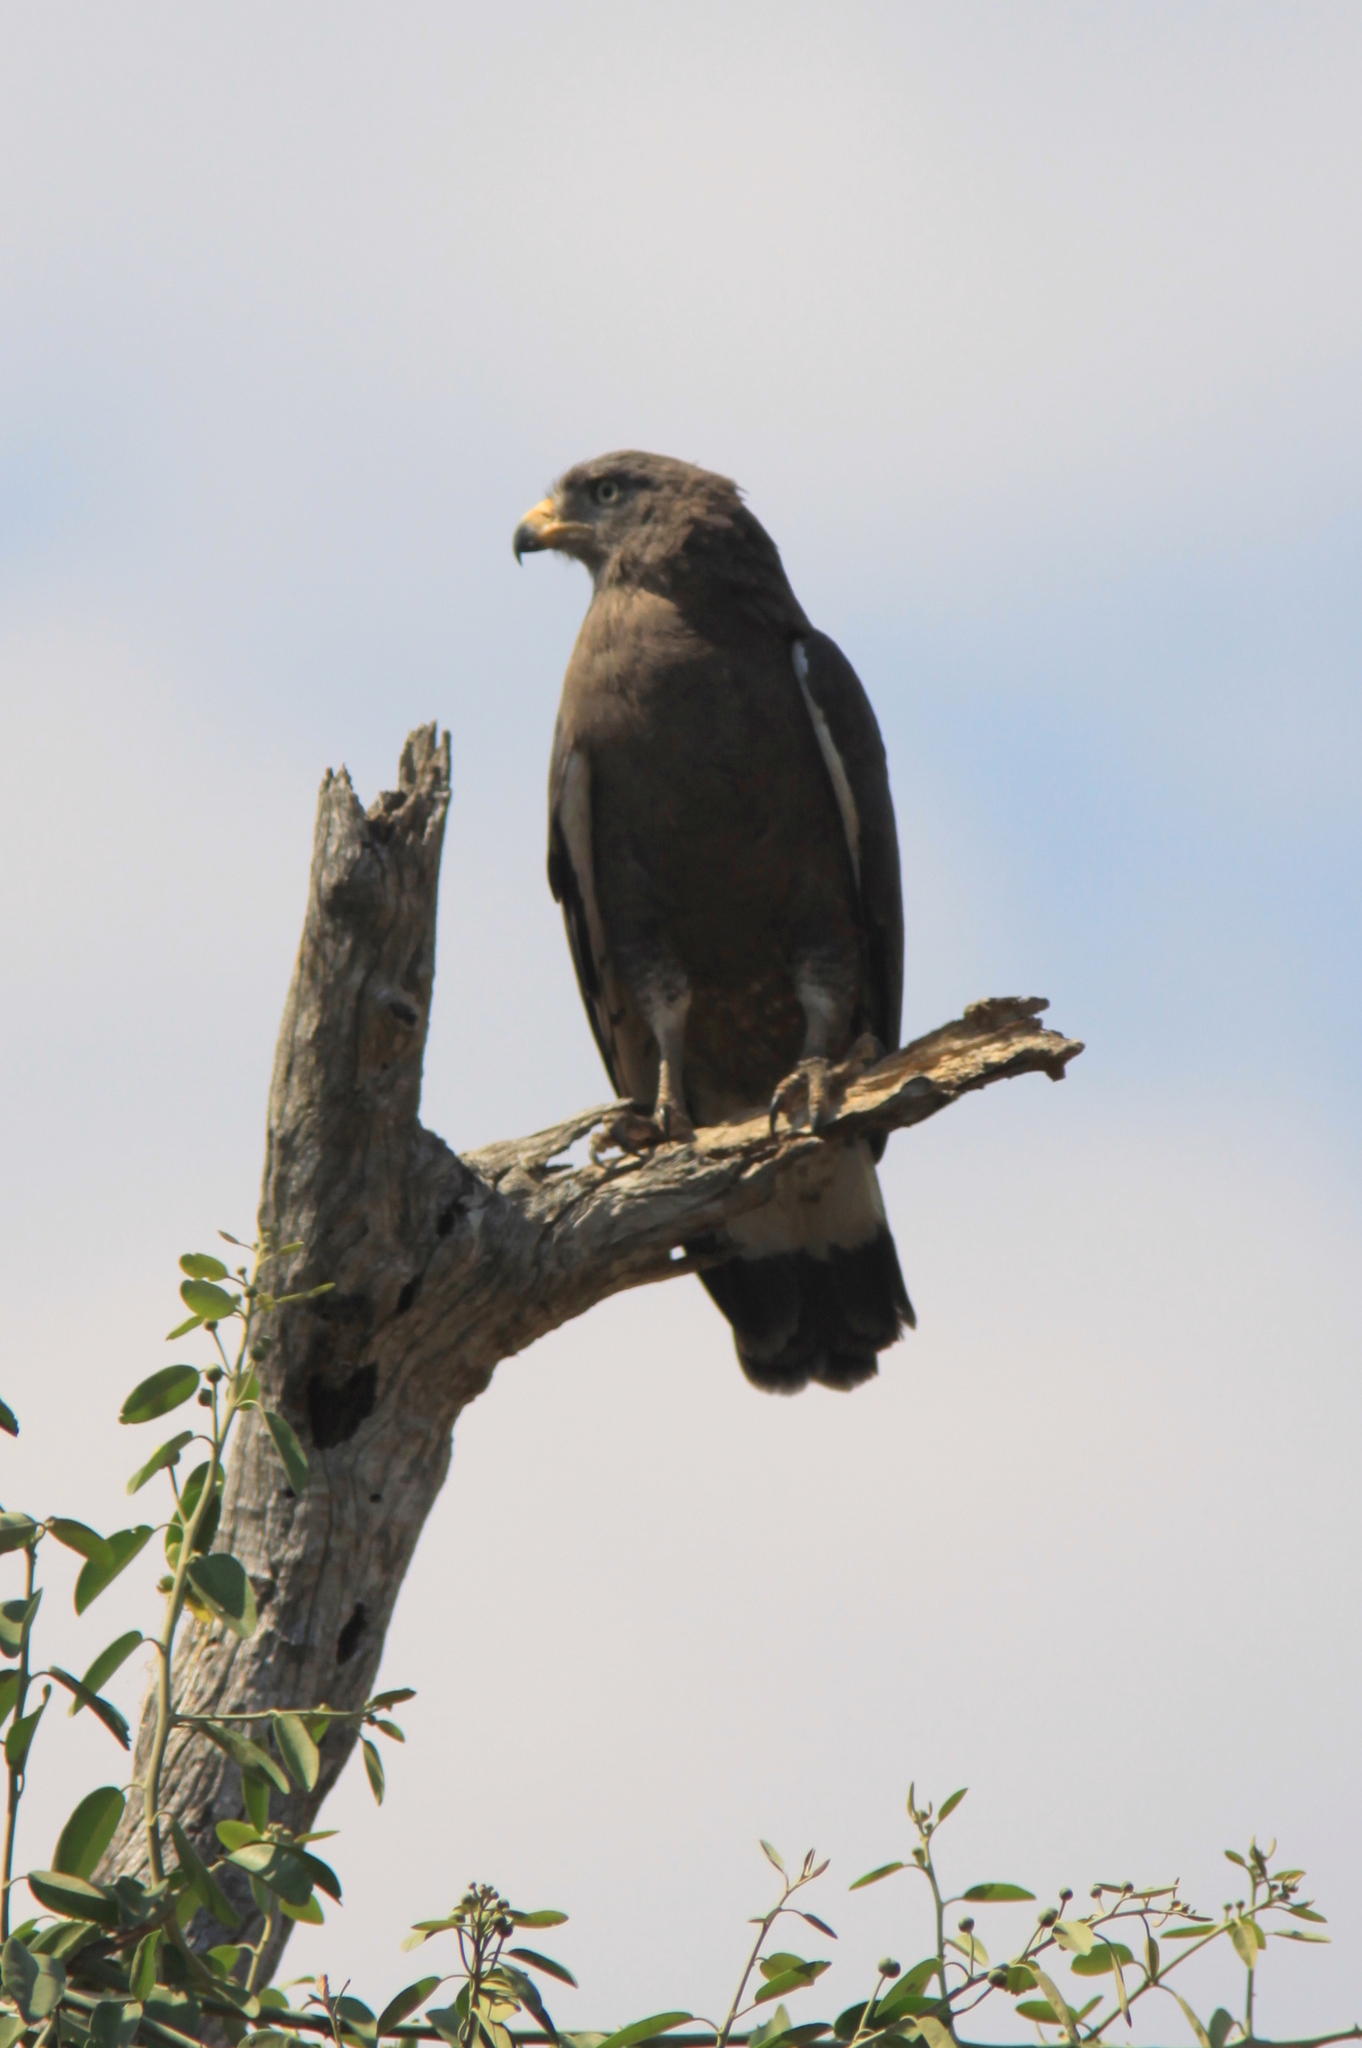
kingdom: Animalia
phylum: Chordata
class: Aves
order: Accipitriformes
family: Accipitridae
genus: Circaetus
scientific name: Circaetus cinerascens
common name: Western banded snake eagle
